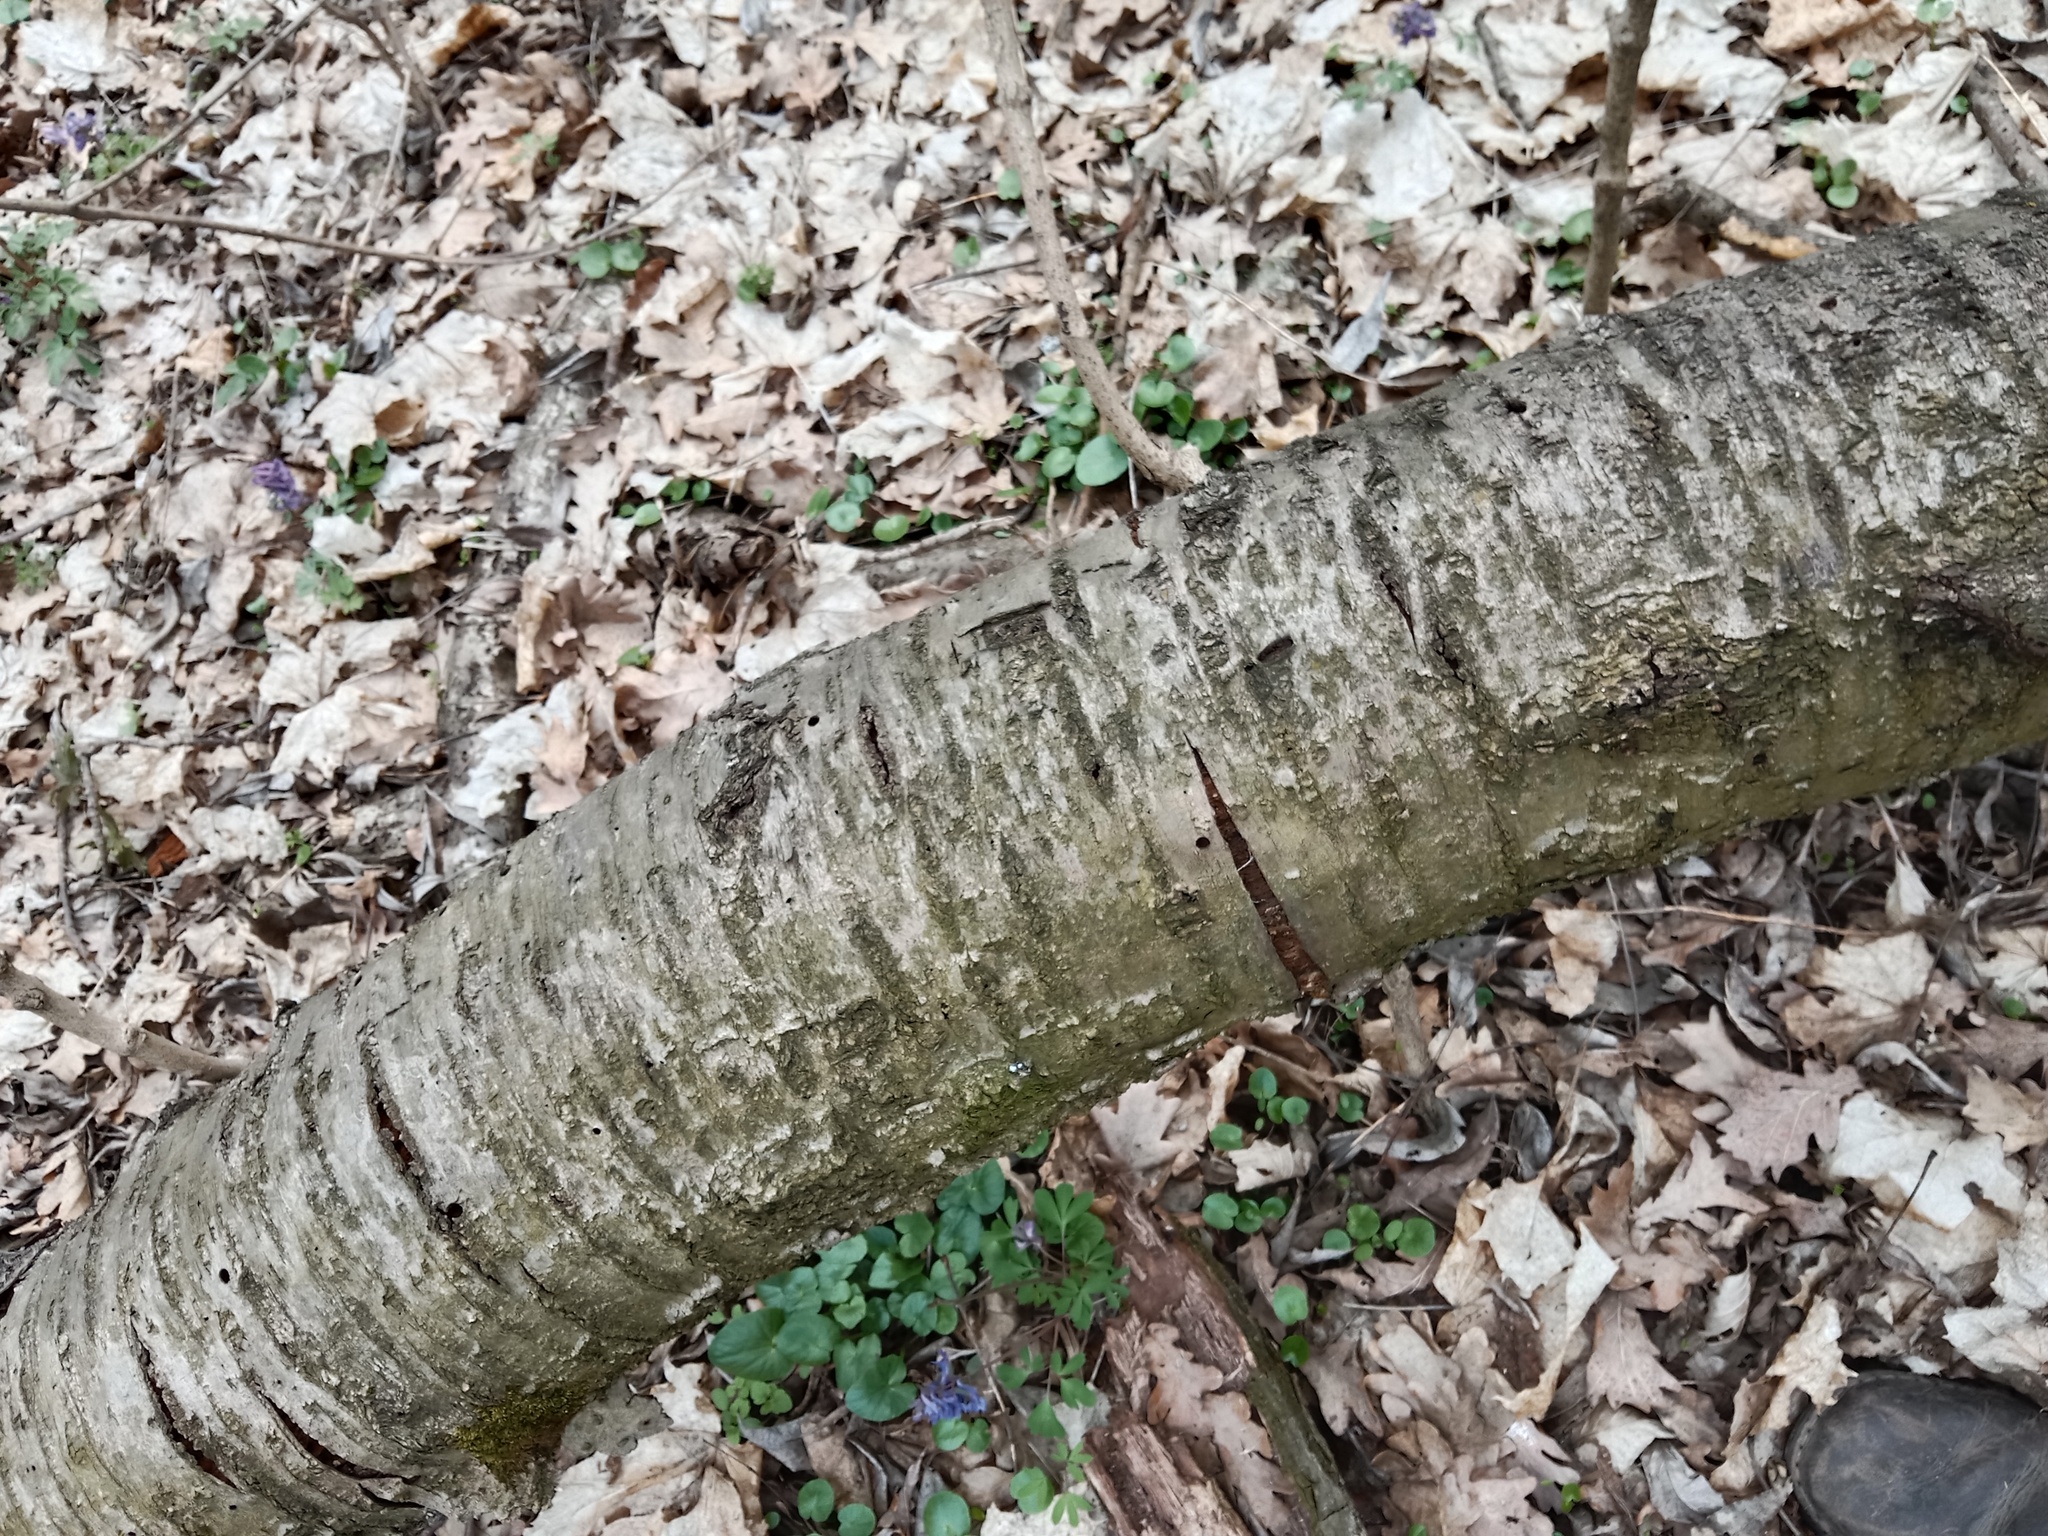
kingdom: Plantae
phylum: Tracheophyta
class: Magnoliopsida
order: Rosales
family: Rosaceae
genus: Prunus
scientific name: Prunus avium
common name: Sweet cherry
